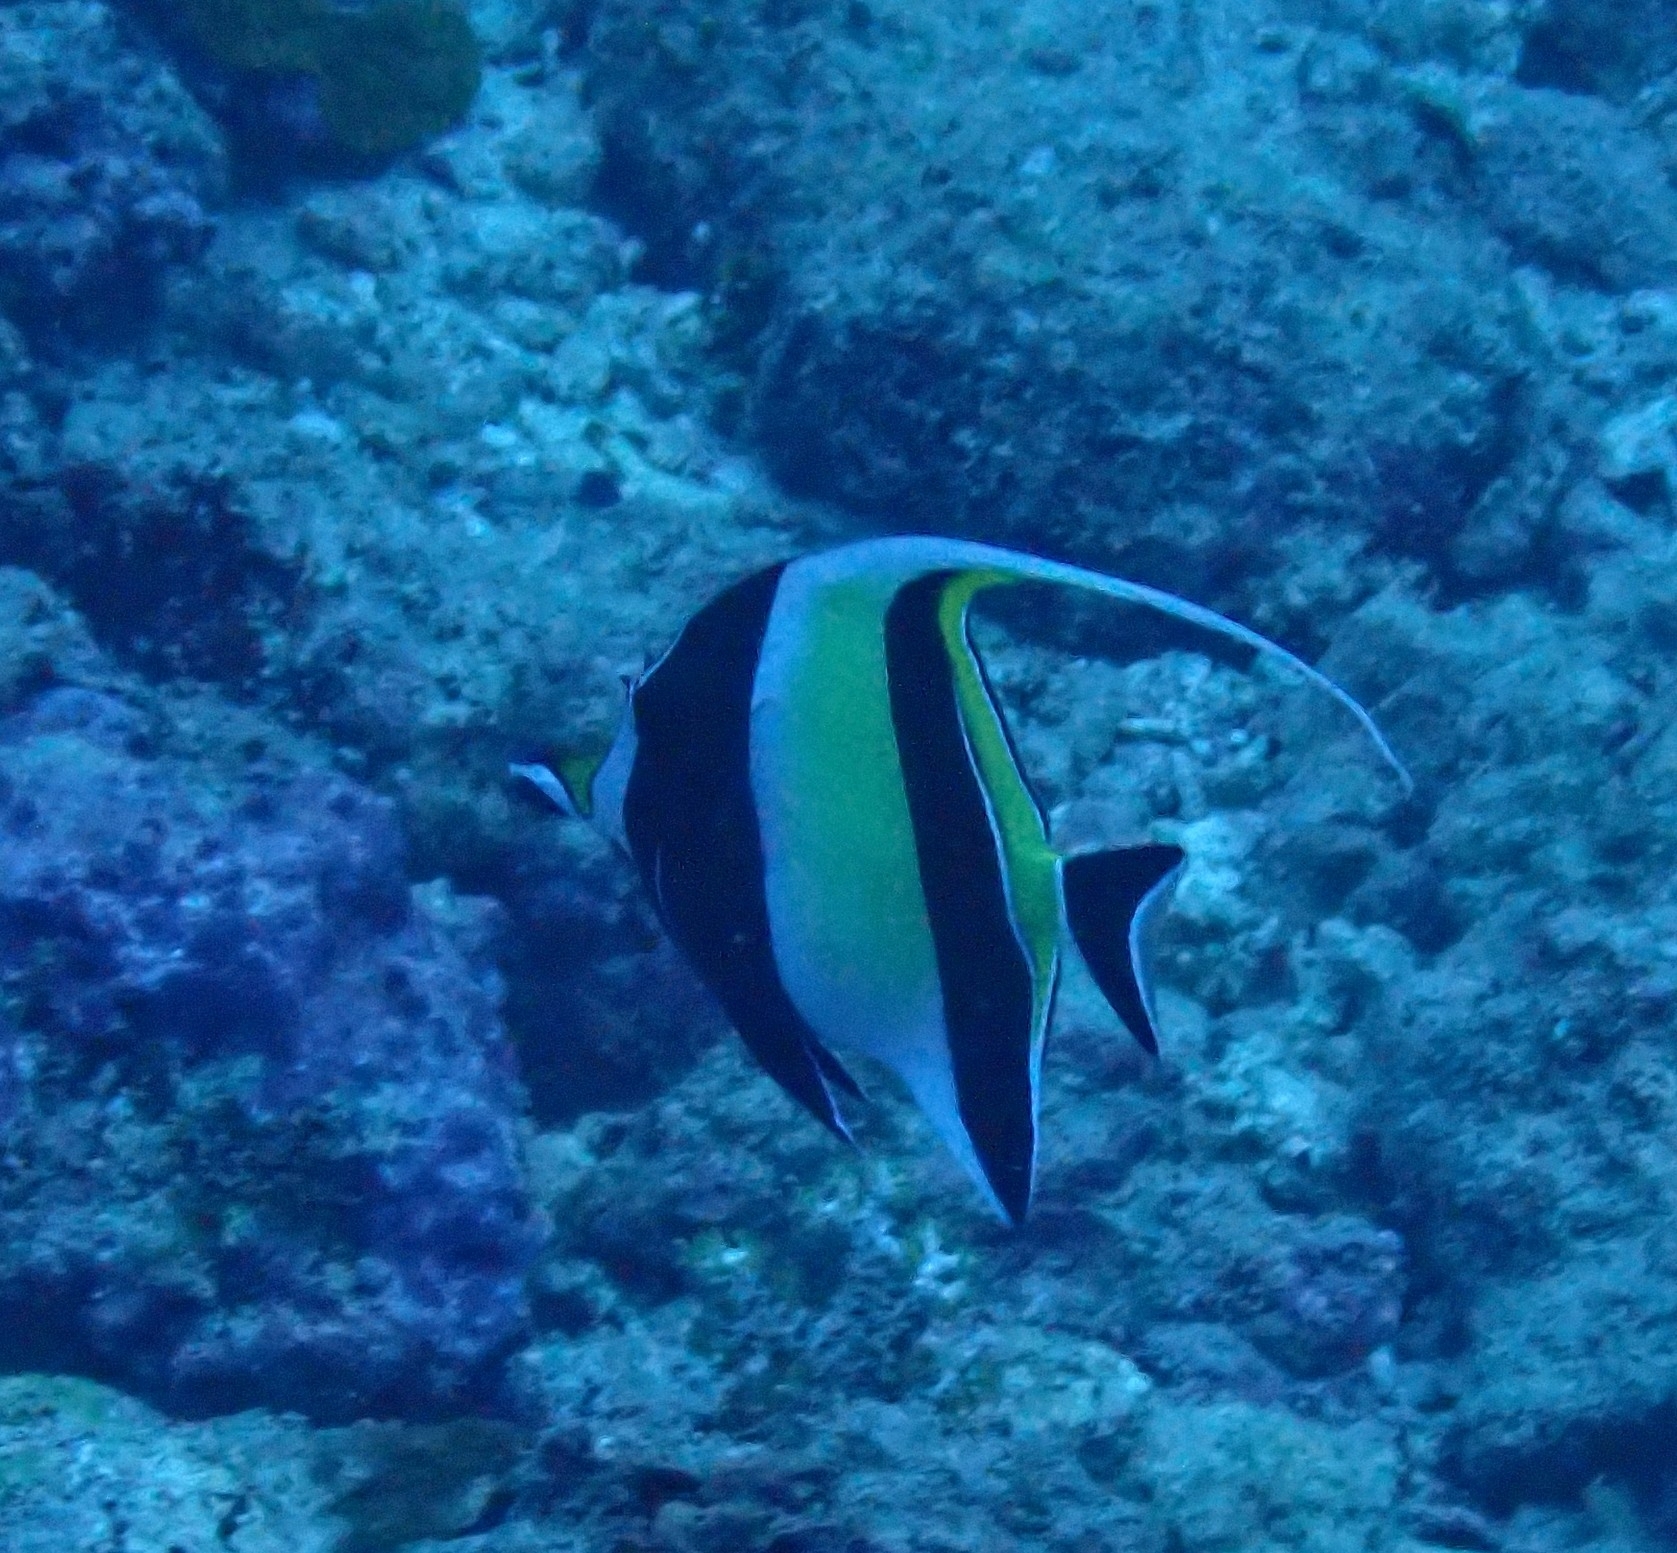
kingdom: Animalia
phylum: Chordata
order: Perciformes
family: Zanclidae
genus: Zanclus
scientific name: Zanclus cornutus
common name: Moorish idol
